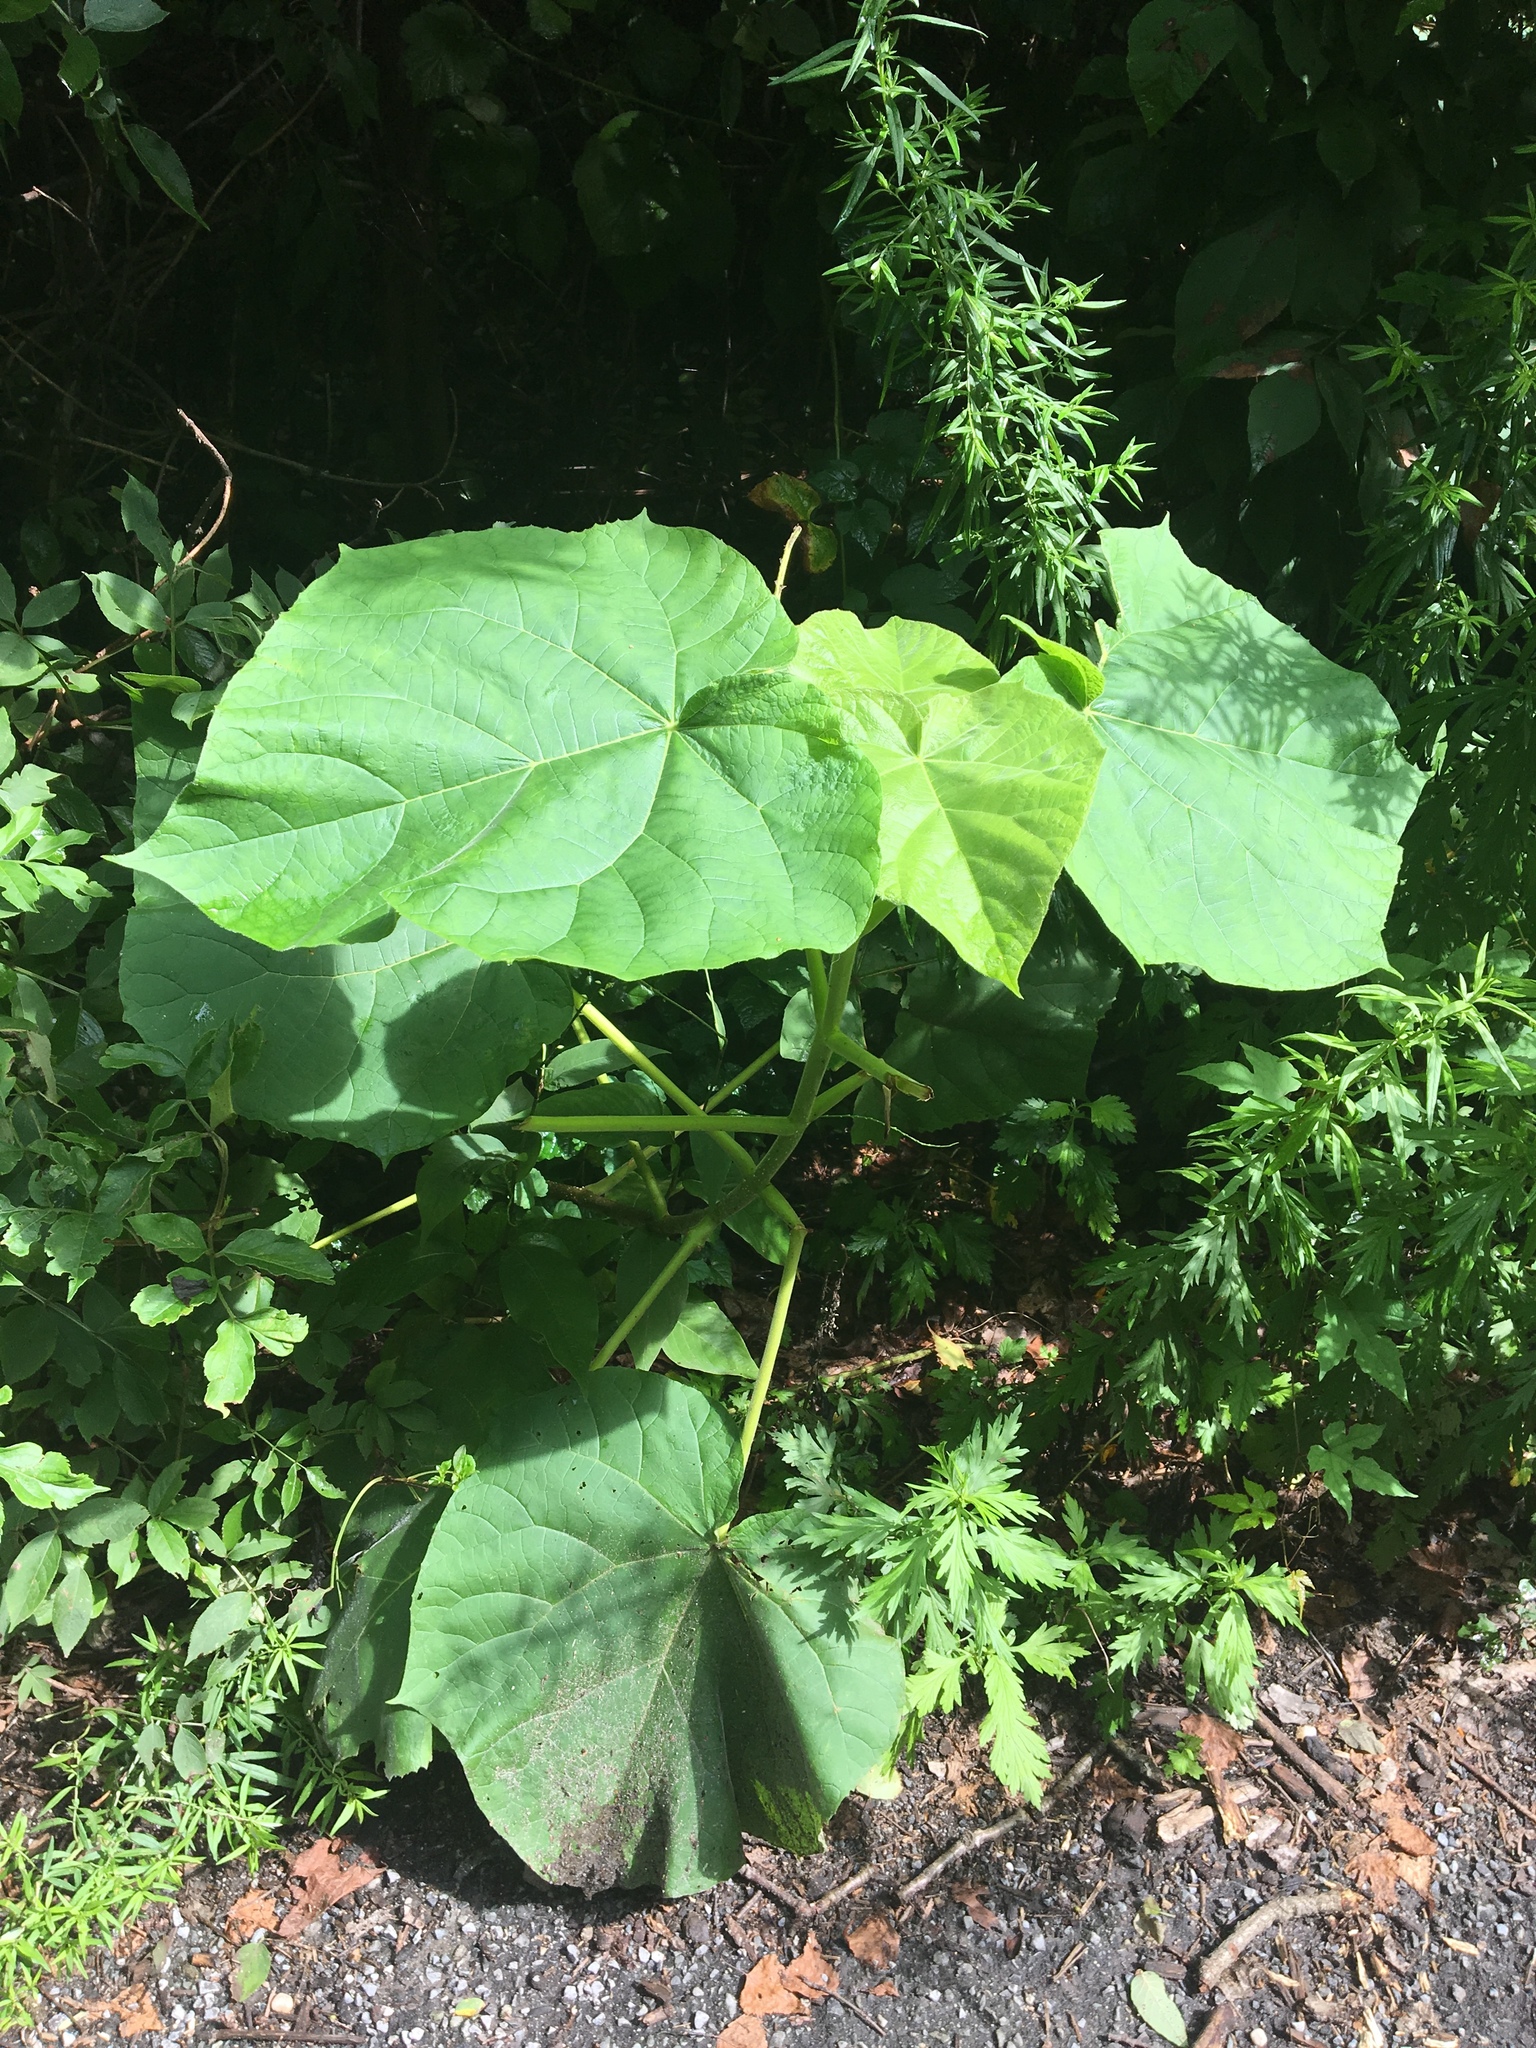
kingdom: Plantae
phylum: Tracheophyta
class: Magnoliopsida
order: Lamiales
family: Paulowniaceae
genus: Paulownia
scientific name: Paulownia tomentosa
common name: Foxglove-tree
